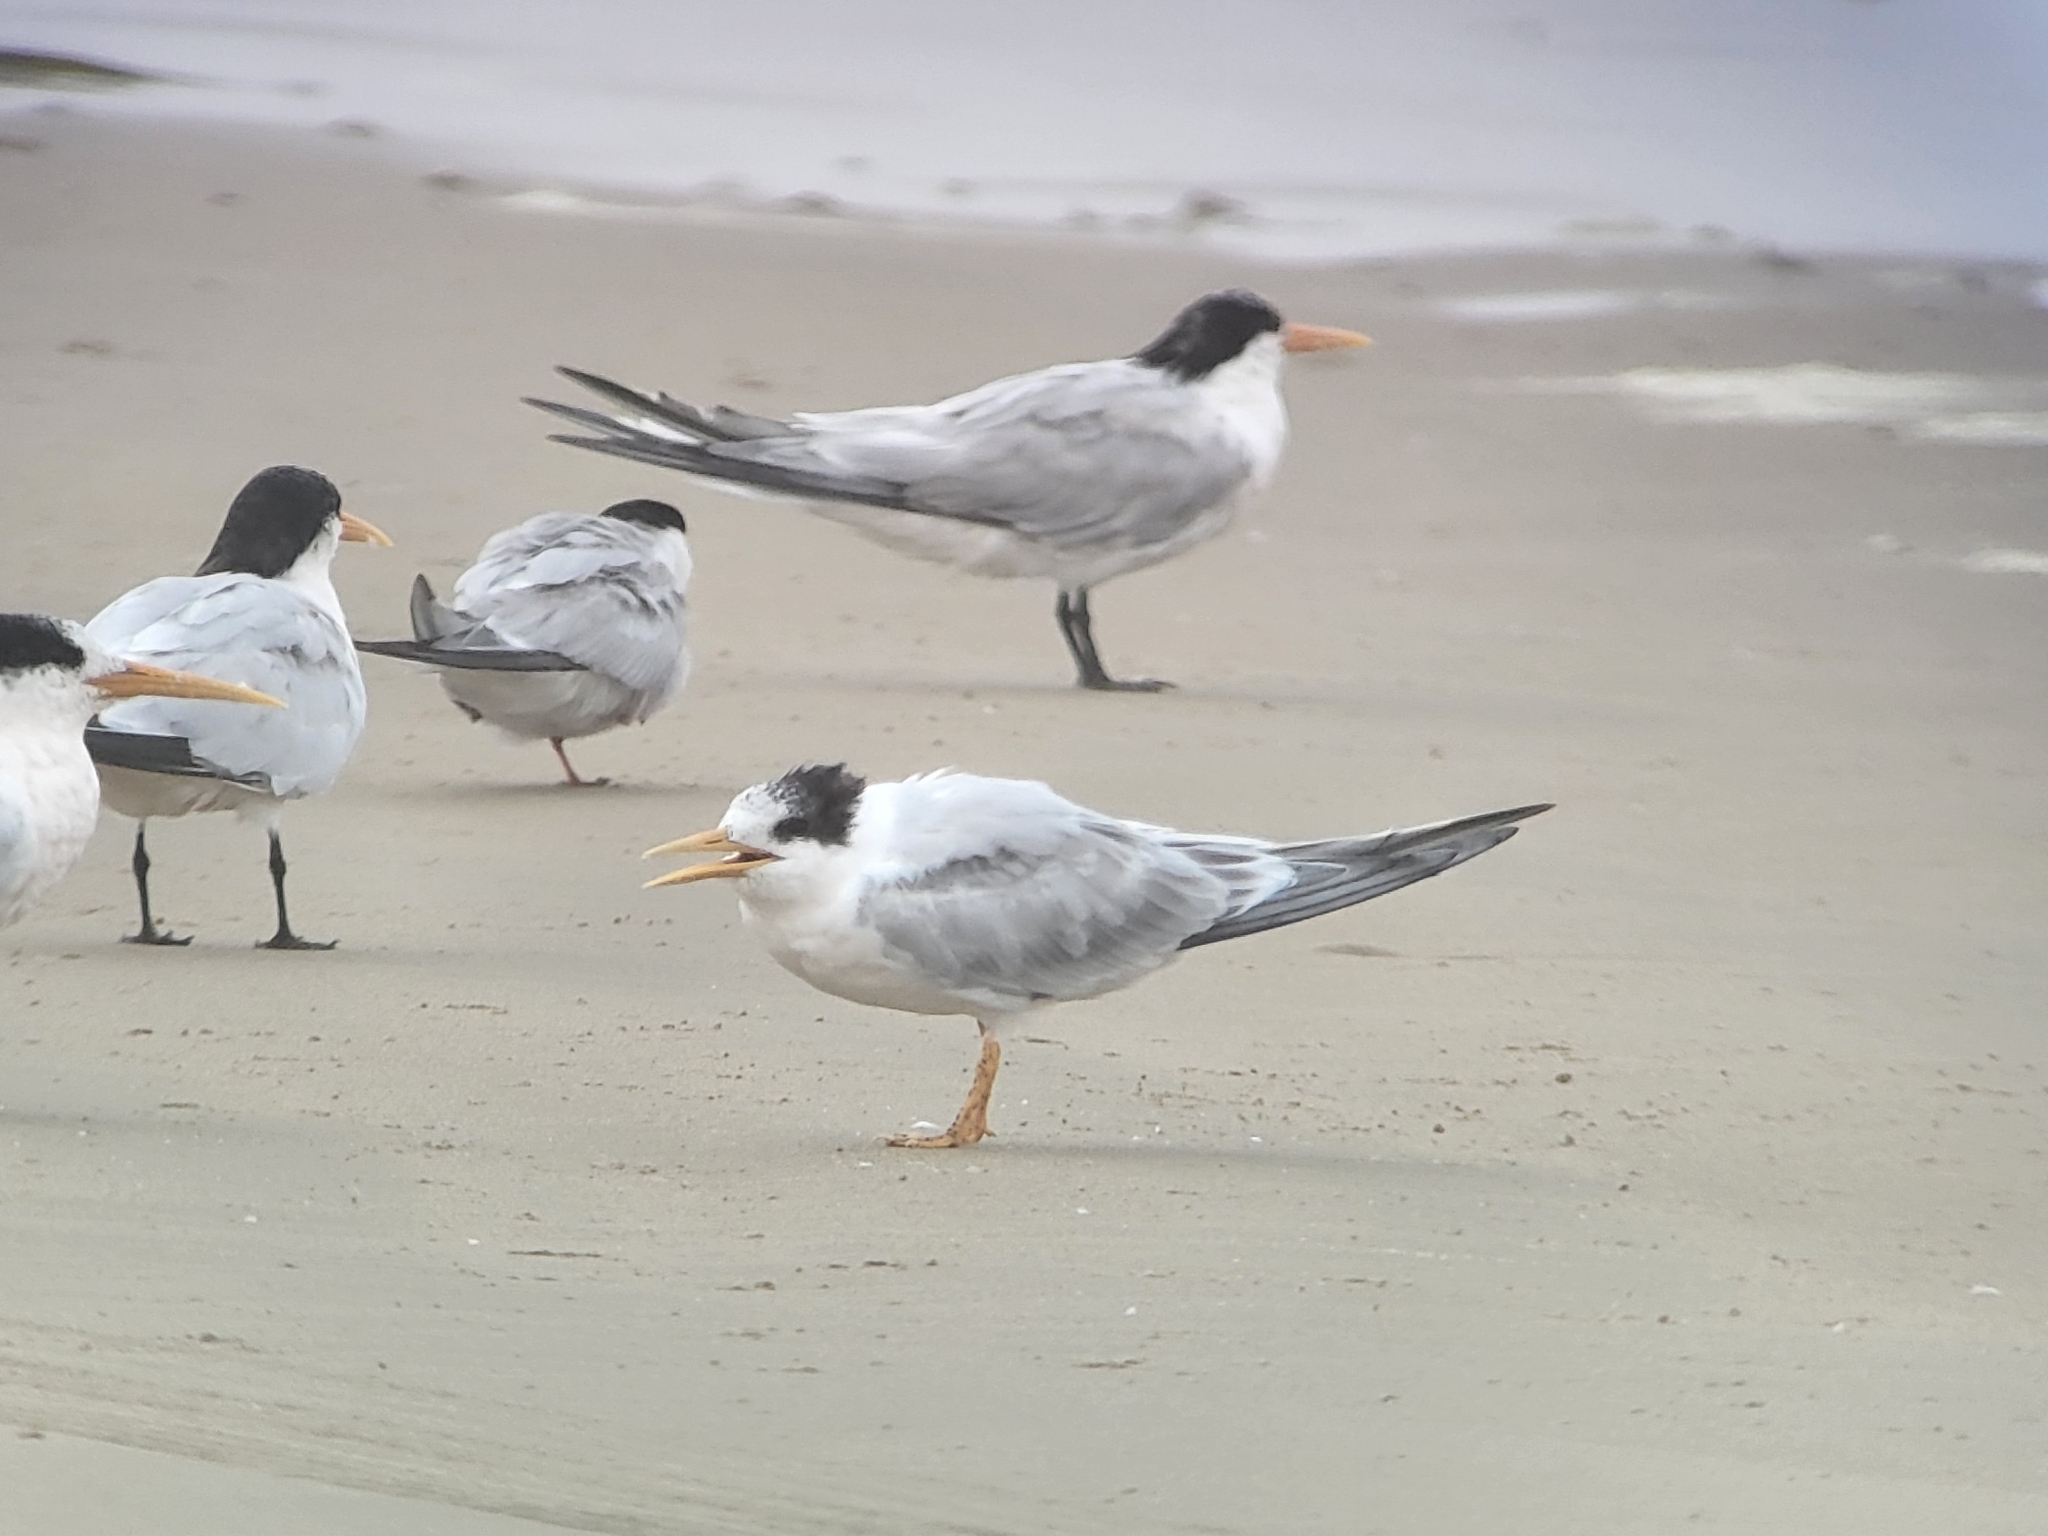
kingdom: Animalia
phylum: Chordata
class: Aves
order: Charadriiformes
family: Laridae
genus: Thalasseus
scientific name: Thalasseus elegans
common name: Elegant tern
